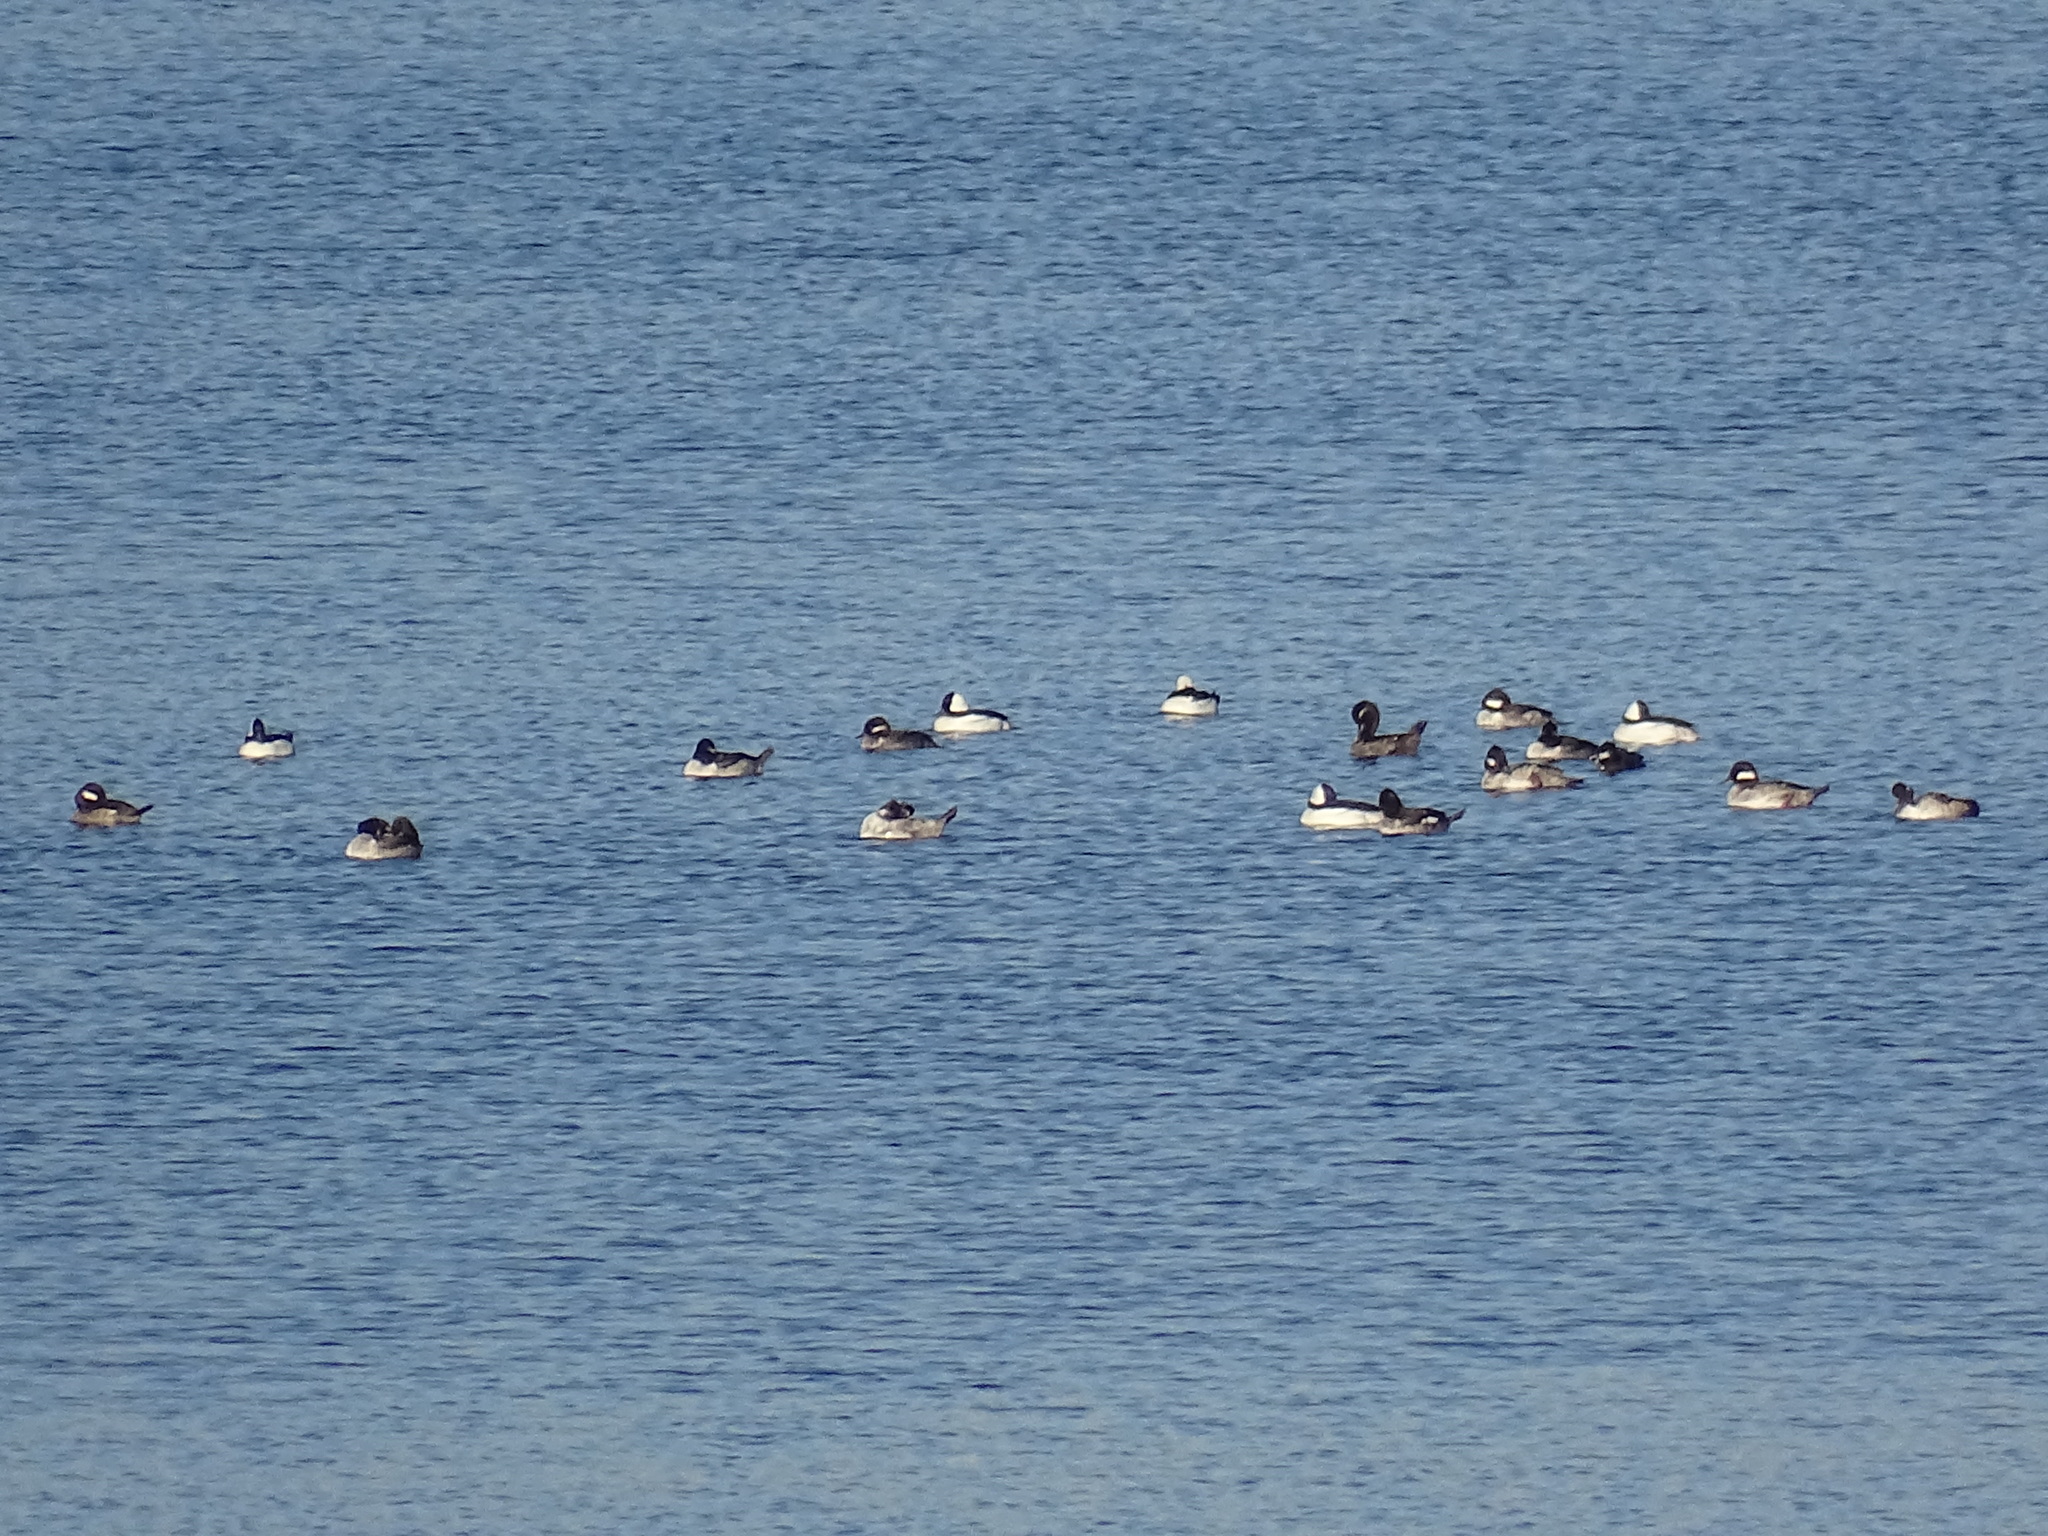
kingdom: Animalia
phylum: Chordata
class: Aves
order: Anseriformes
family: Anatidae
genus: Bucephala
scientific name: Bucephala albeola
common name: Bufflehead
